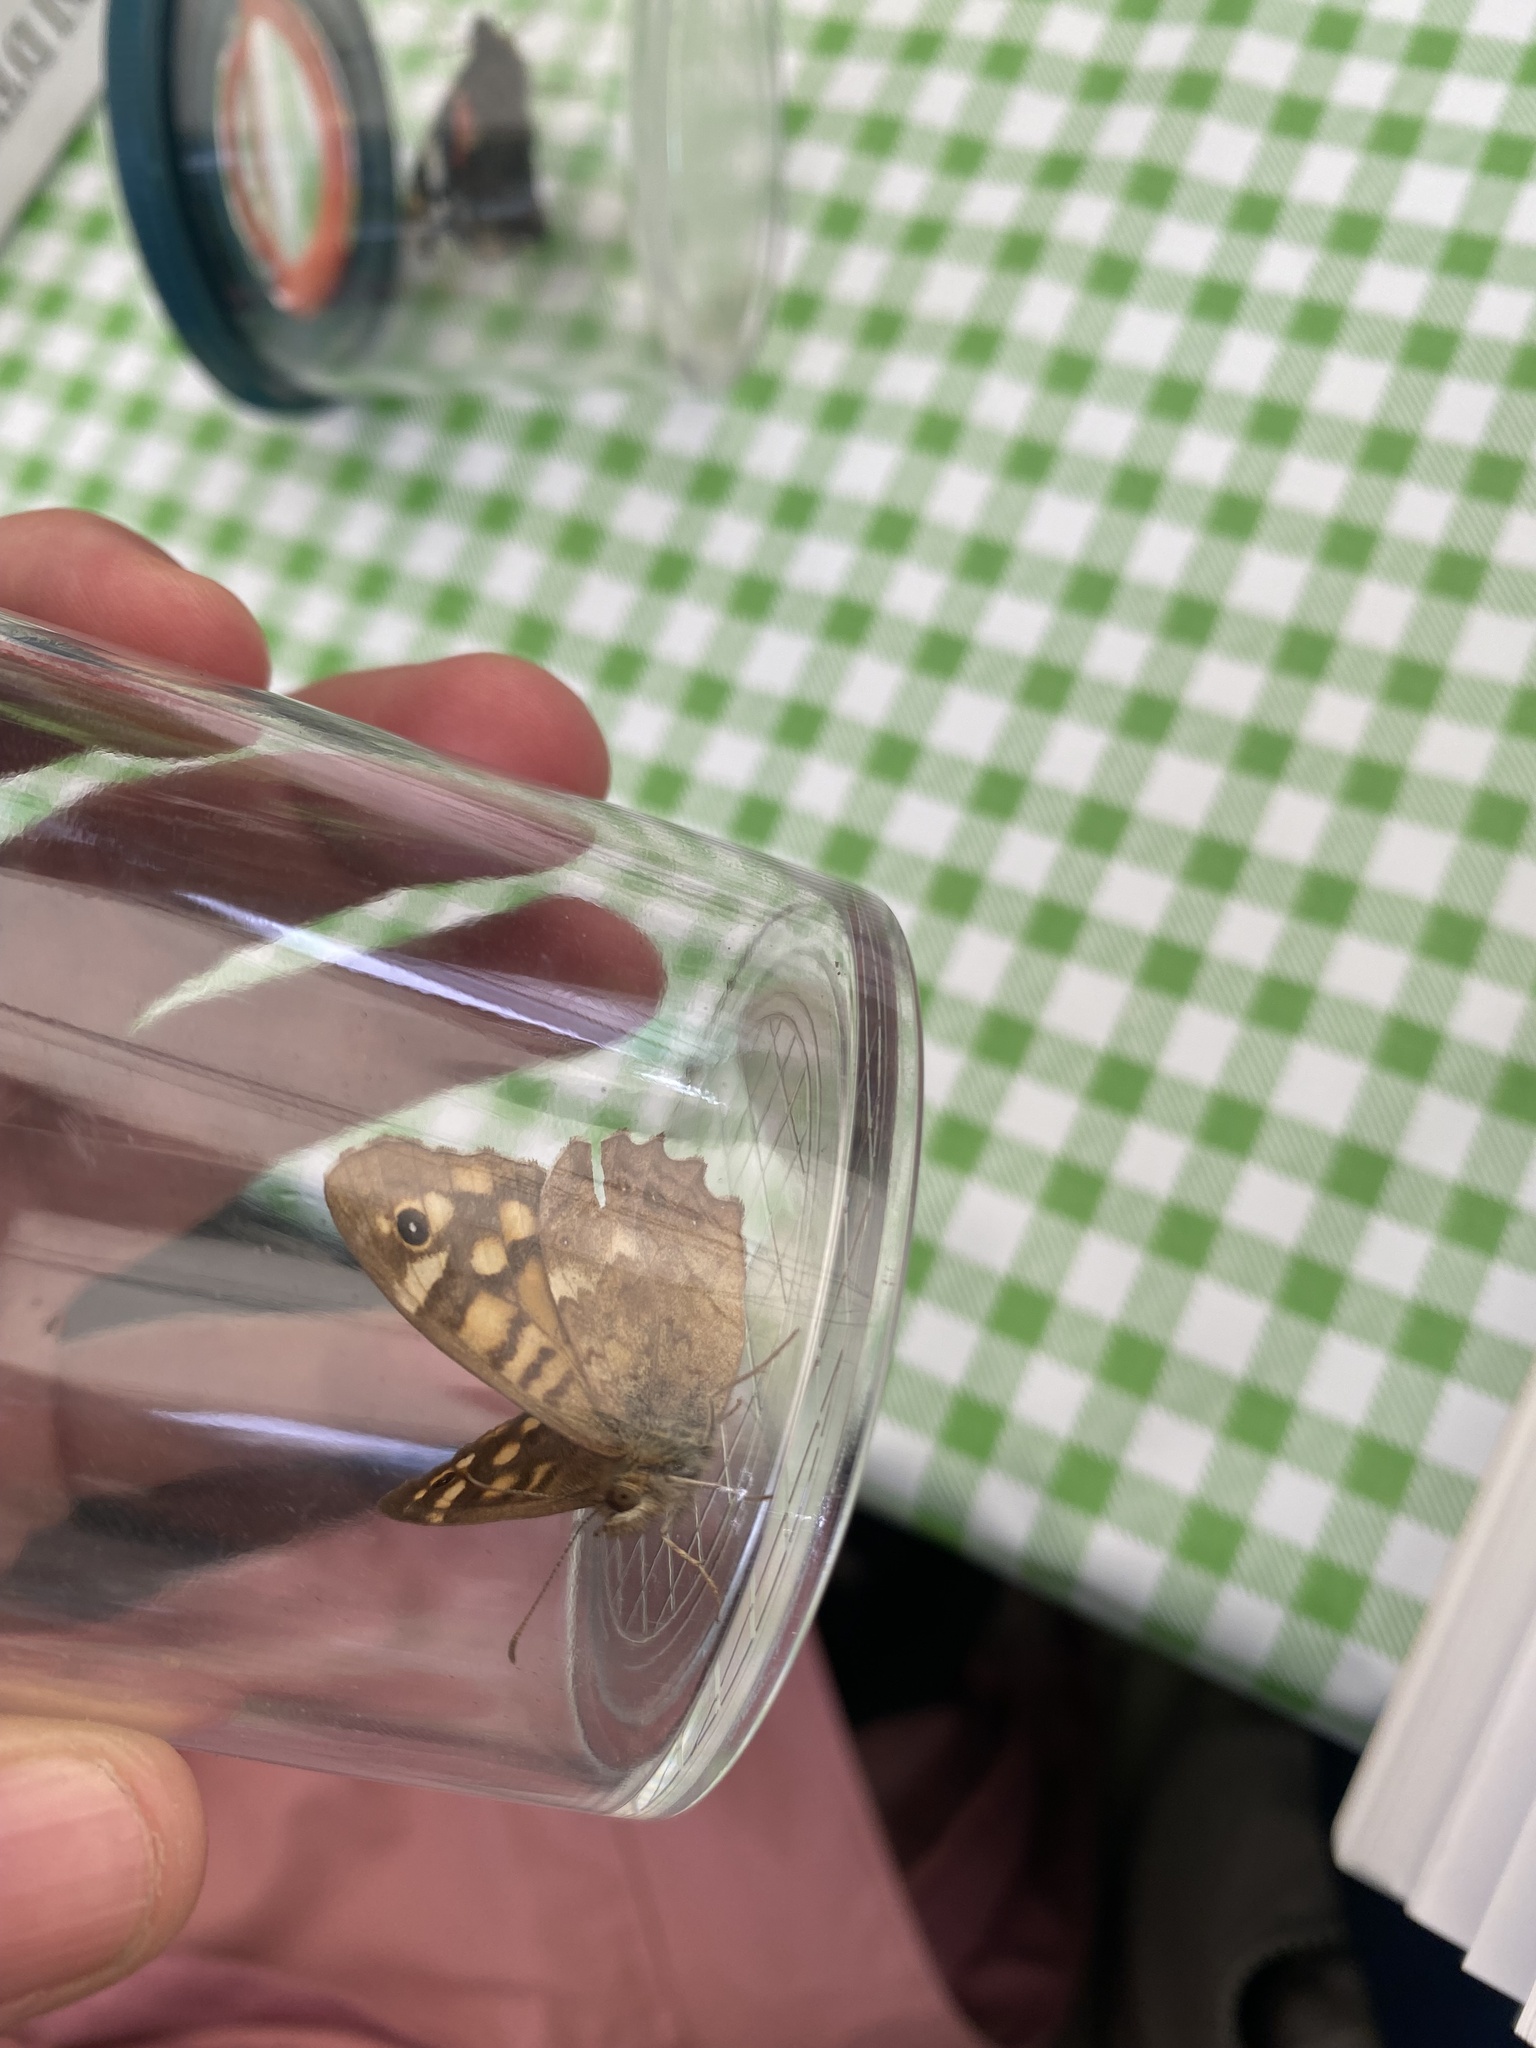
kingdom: Animalia
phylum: Arthropoda
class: Insecta
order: Lepidoptera
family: Nymphalidae
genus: Pararge
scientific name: Pararge aegeria
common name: Speckled wood
